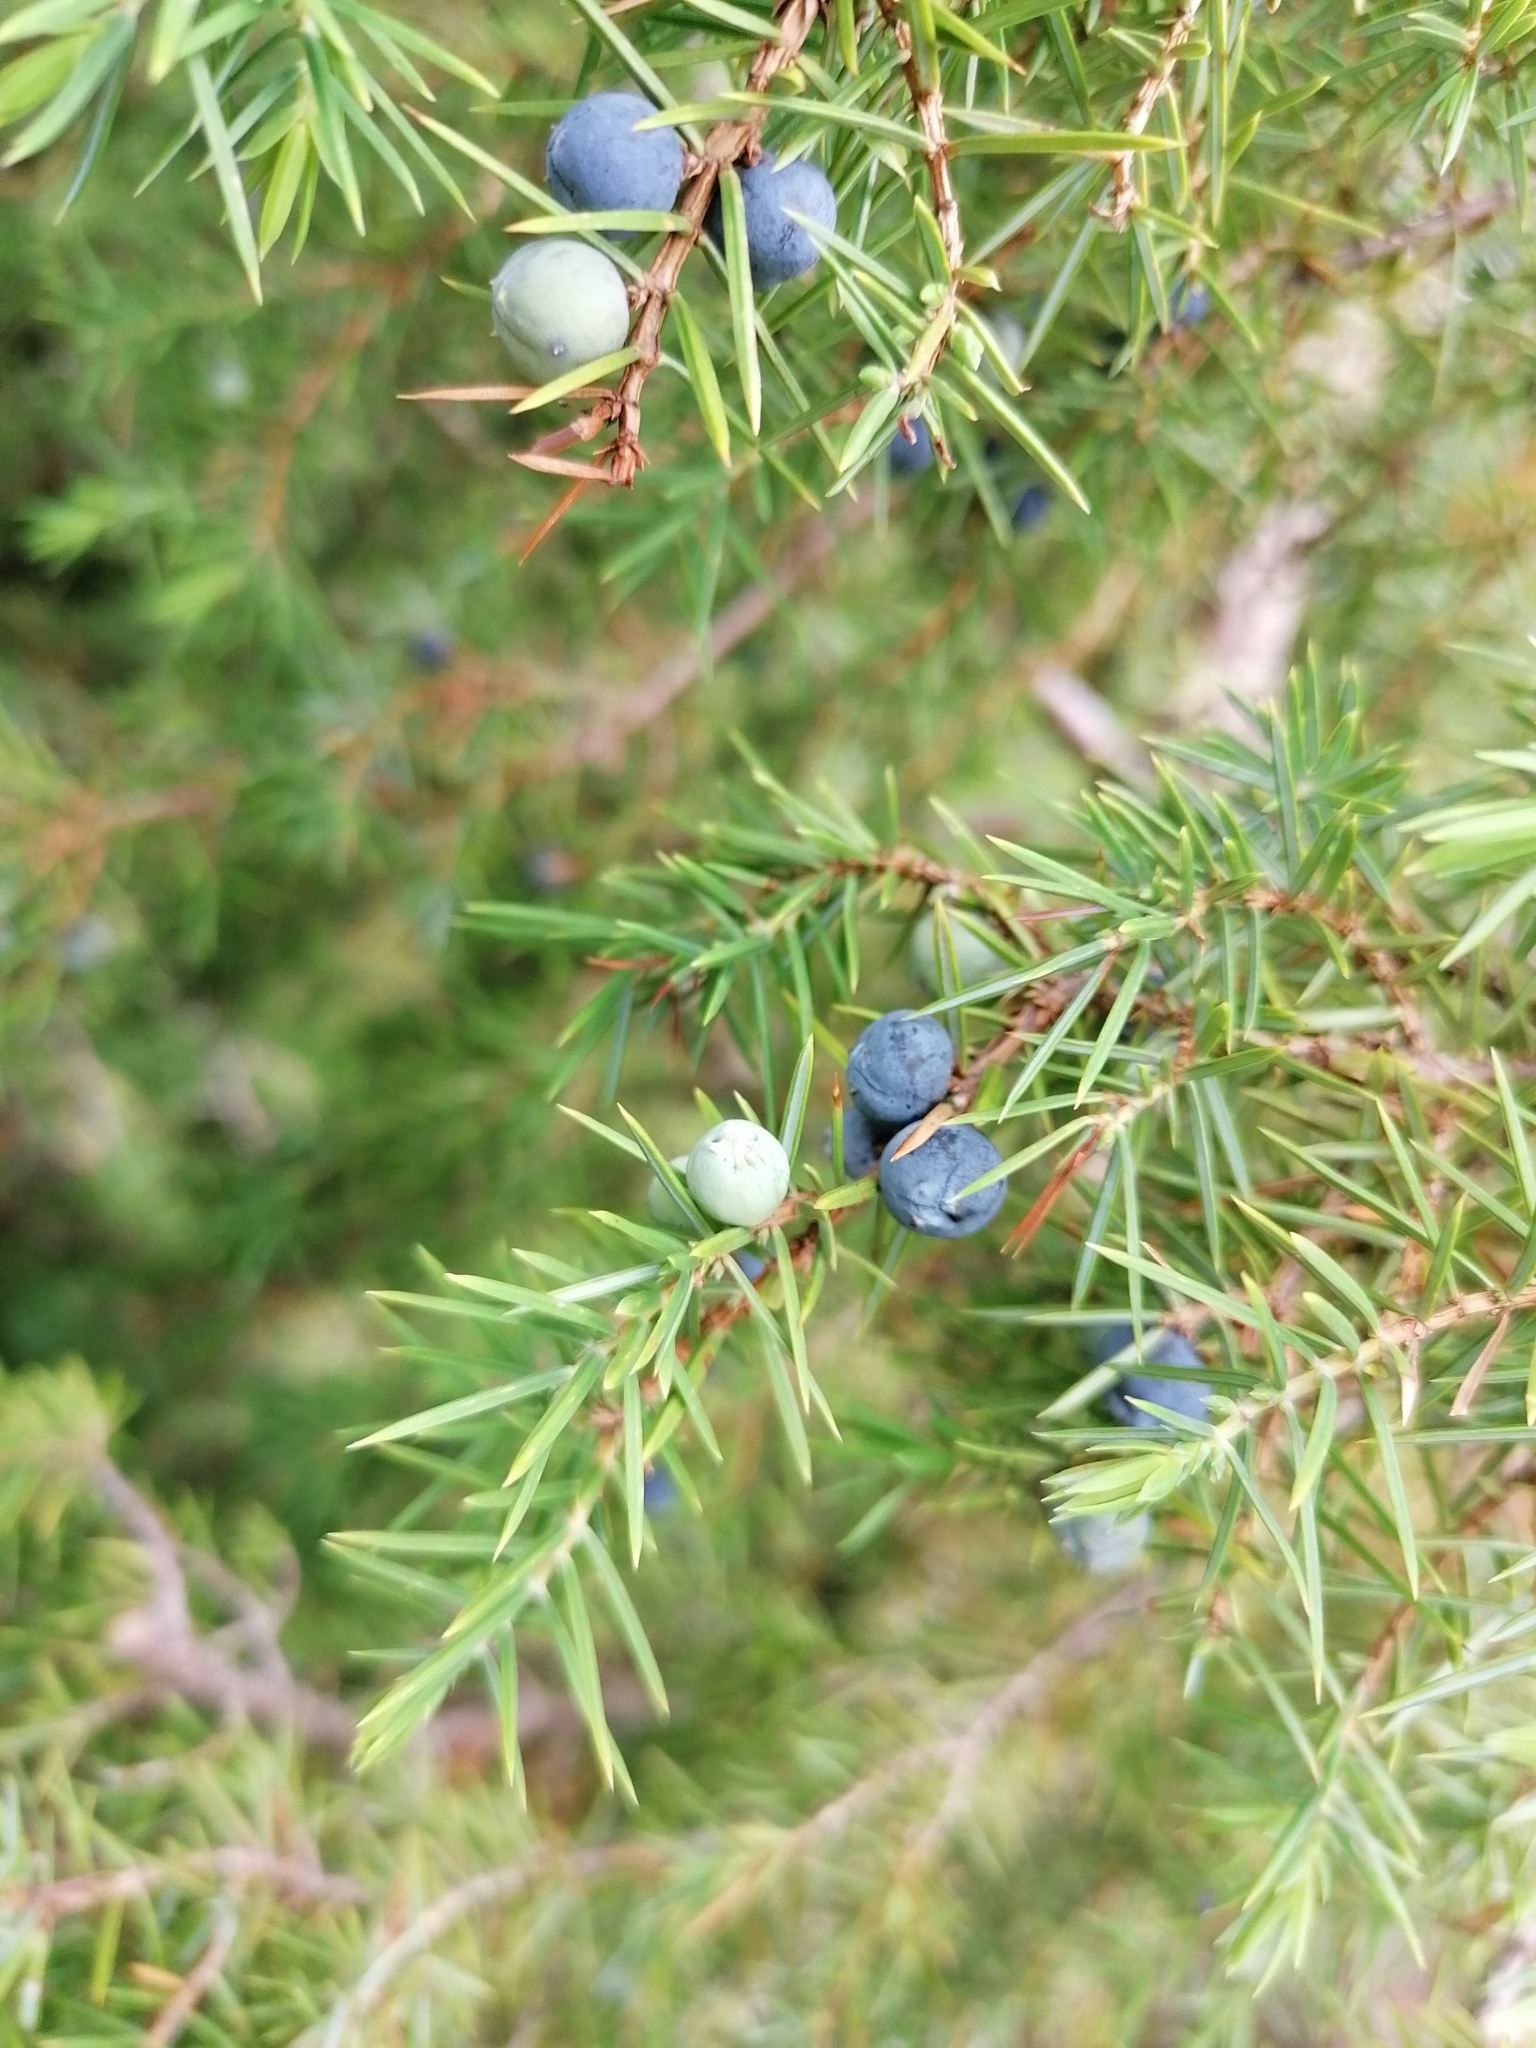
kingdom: Plantae
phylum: Tracheophyta
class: Pinopsida
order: Pinales
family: Cupressaceae
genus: Juniperus
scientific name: Juniperus communis
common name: Common juniper
